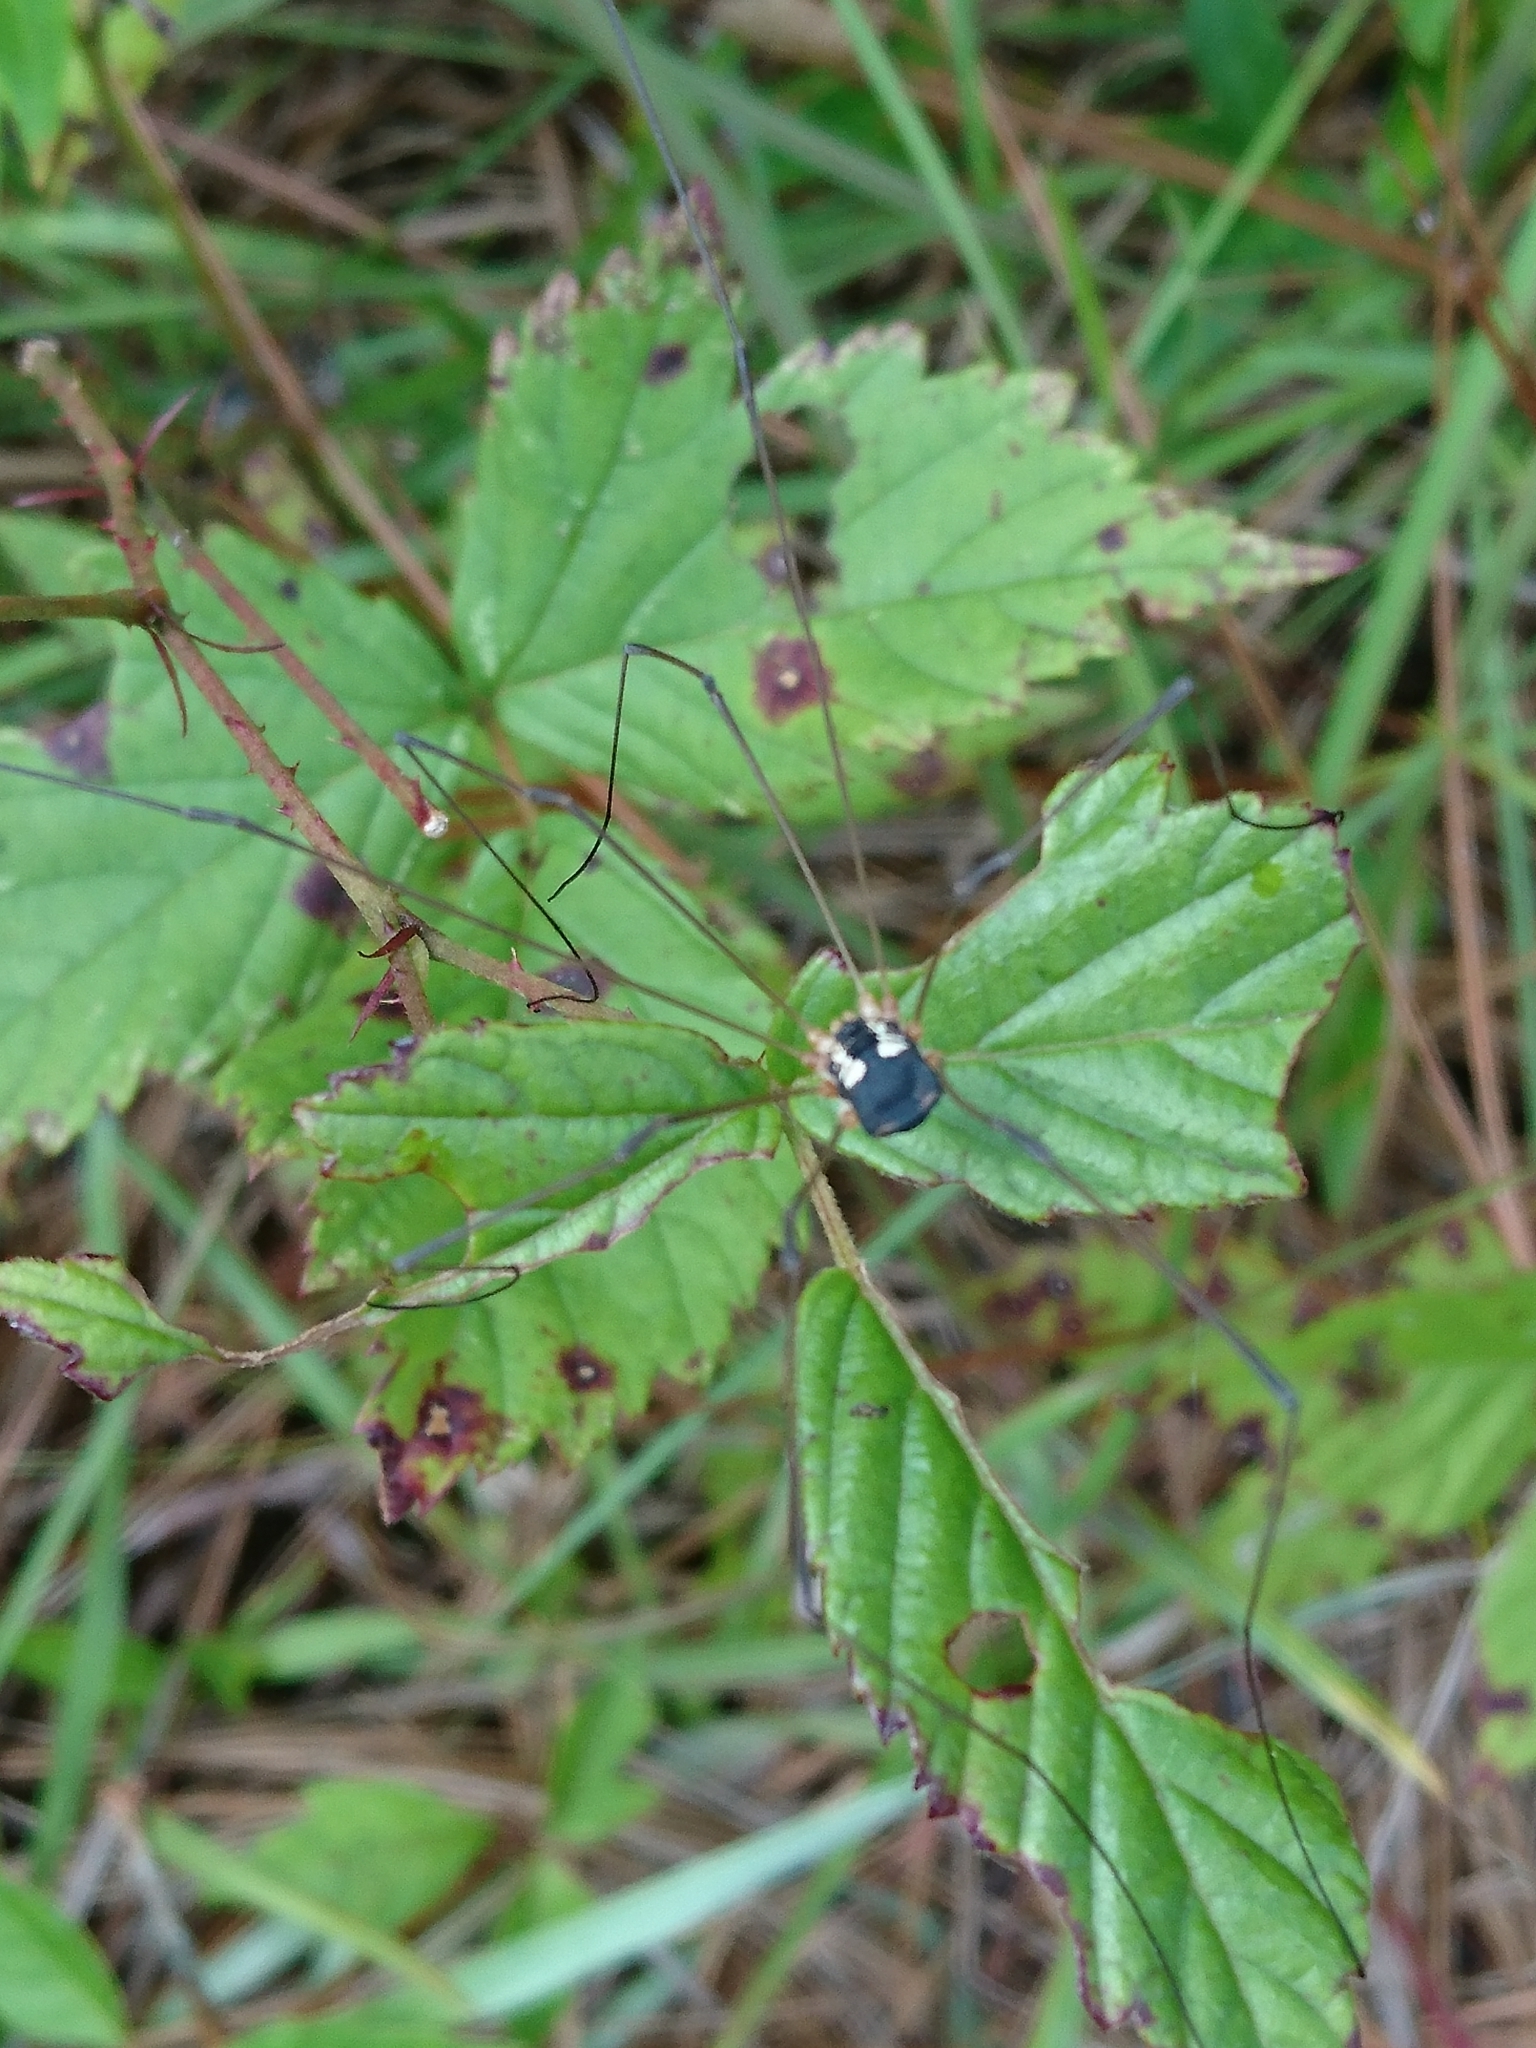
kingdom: Animalia
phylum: Arthropoda
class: Arachnida
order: Opiliones
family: Sclerosomatidae
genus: Leiobunum
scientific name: Leiobunum bimaculatum
